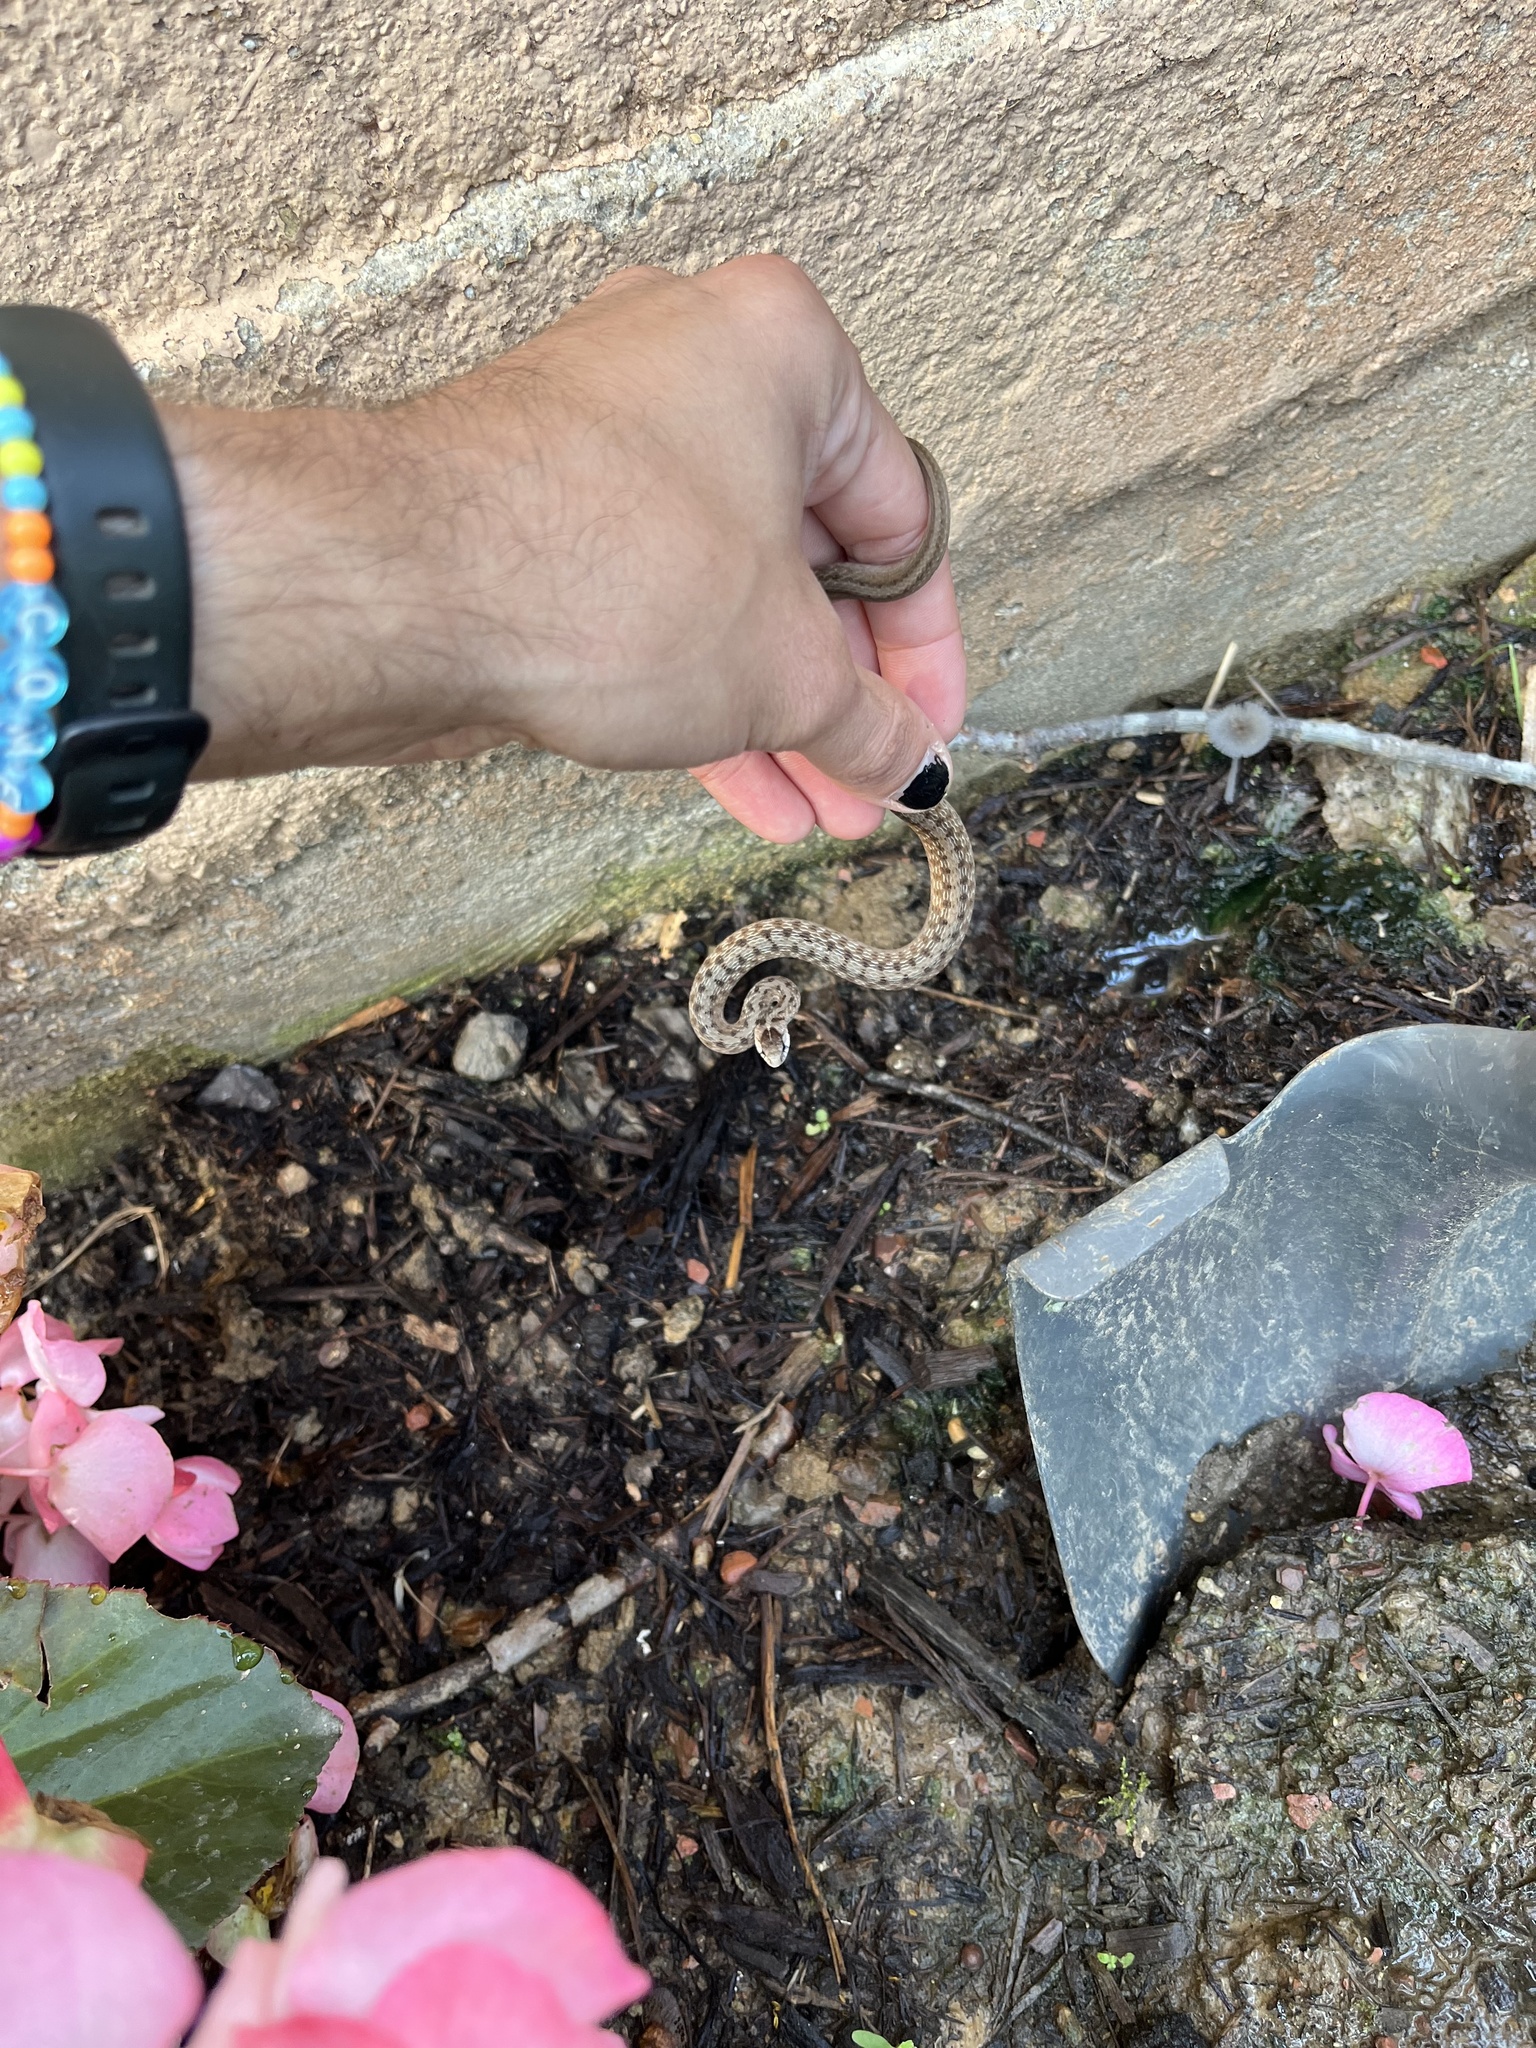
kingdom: Animalia
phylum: Chordata
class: Squamata
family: Colubridae
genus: Storeria
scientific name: Storeria dekayi
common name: (dekay’s) brown snake
